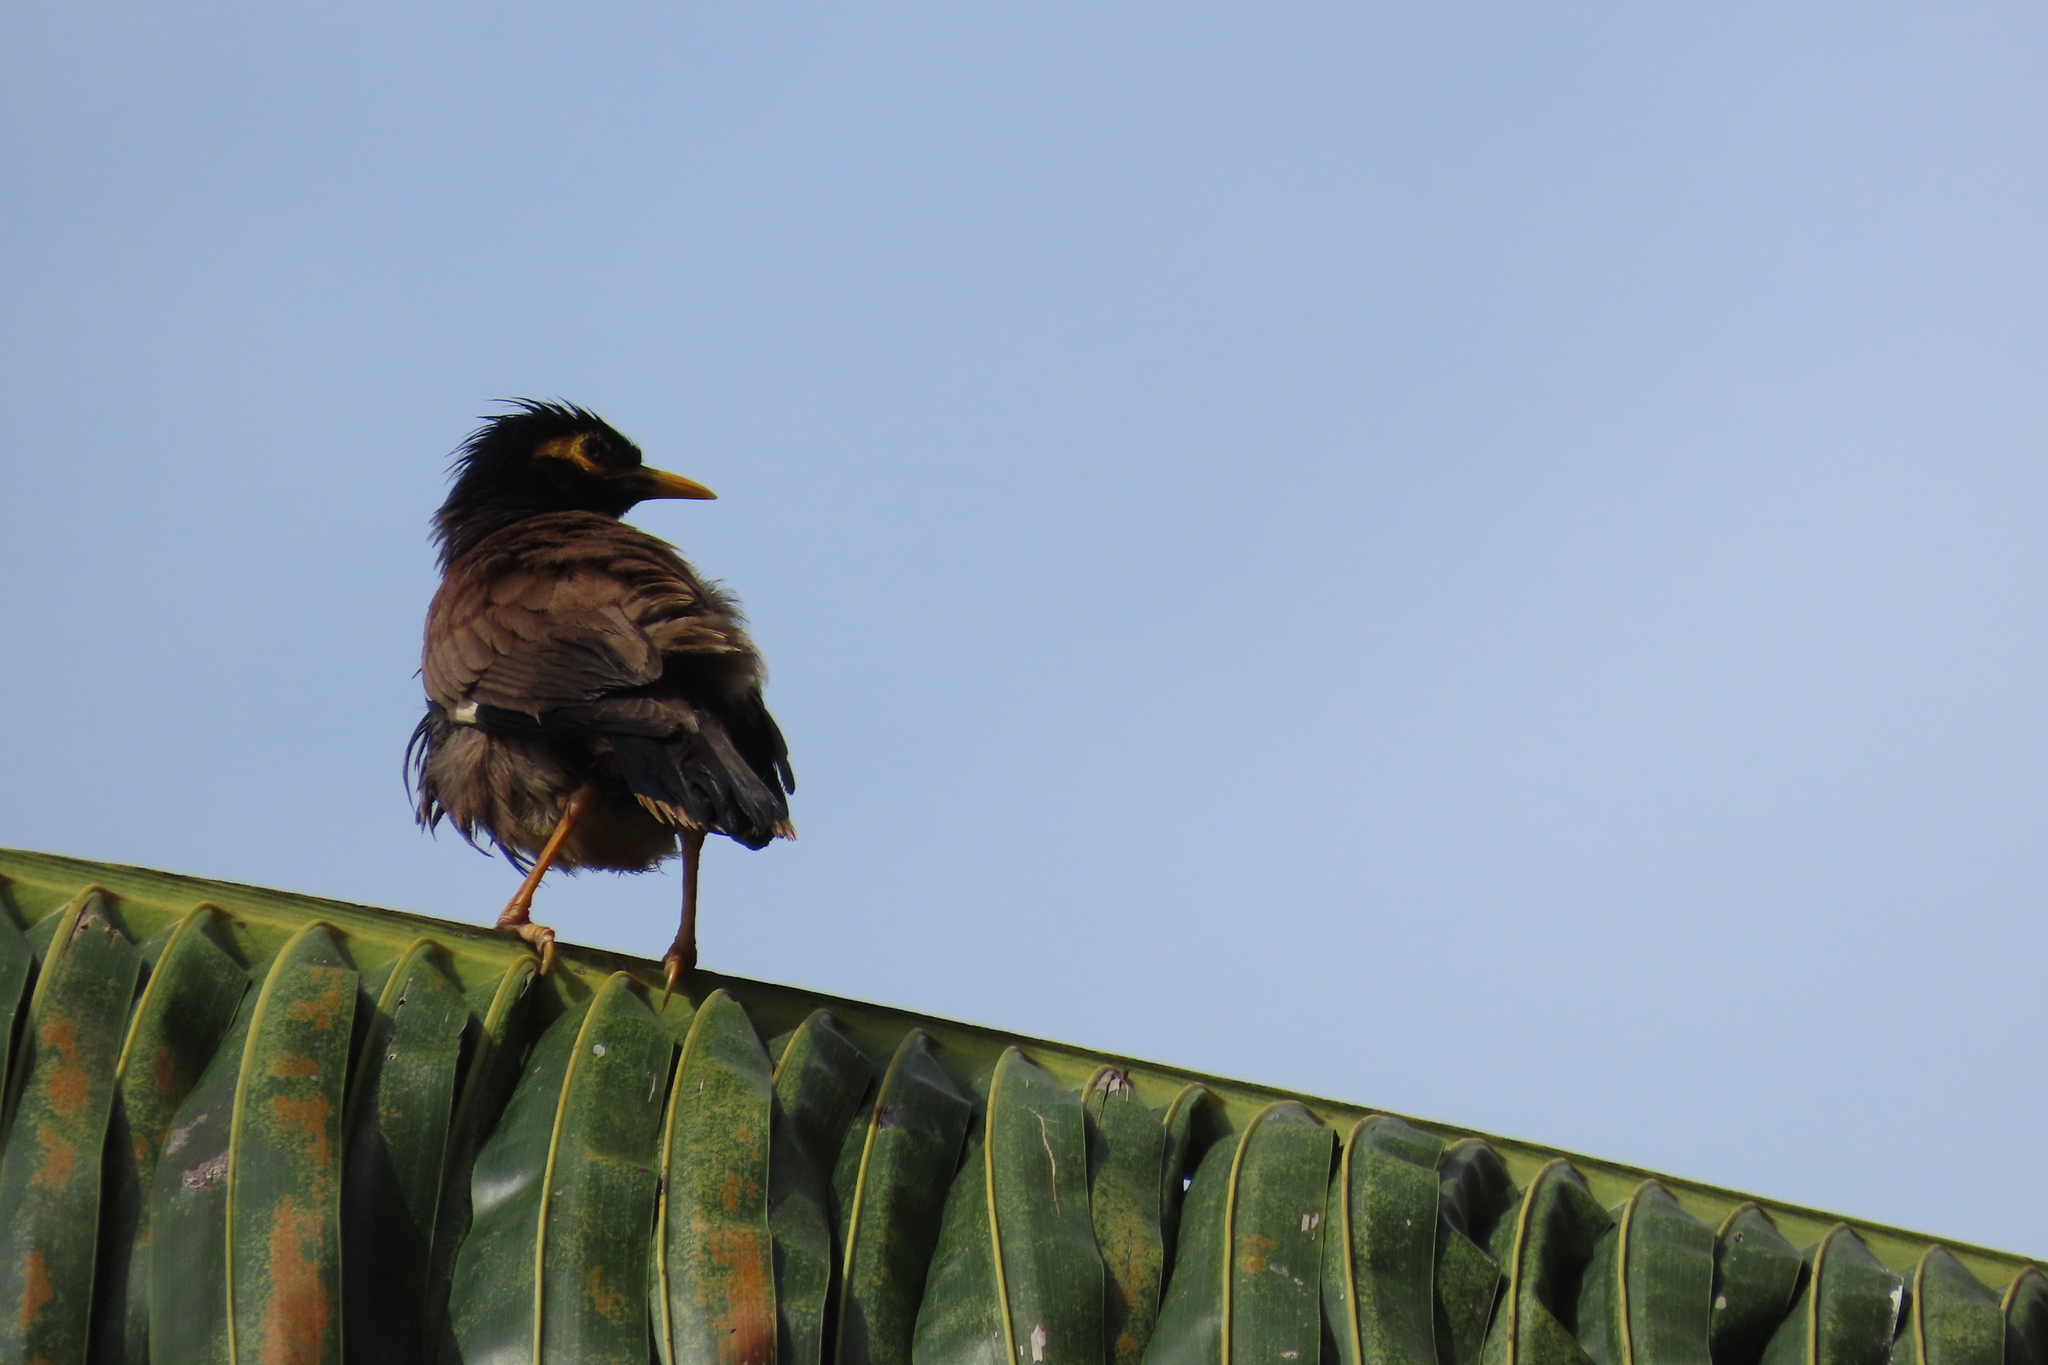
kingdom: Animalia
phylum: Chordata
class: Aves
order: Passeriformes
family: Sturnidae
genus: Acridotheres
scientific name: Acridotheres tristis
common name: Common myna
